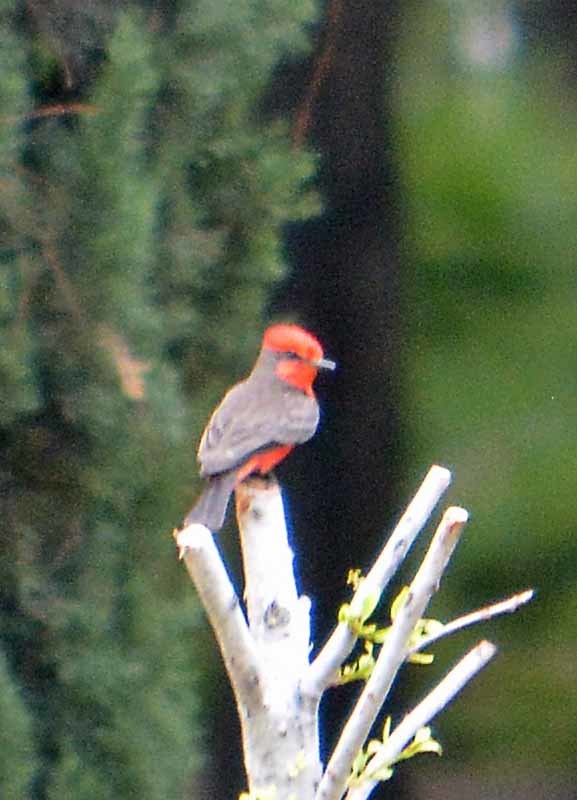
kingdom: Animalia
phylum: Chordata
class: Aves
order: Passeriformes
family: Tyrannidae
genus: Pyrocephalus
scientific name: Pyrocephalus rubinus
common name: Vermilion flycatcher
